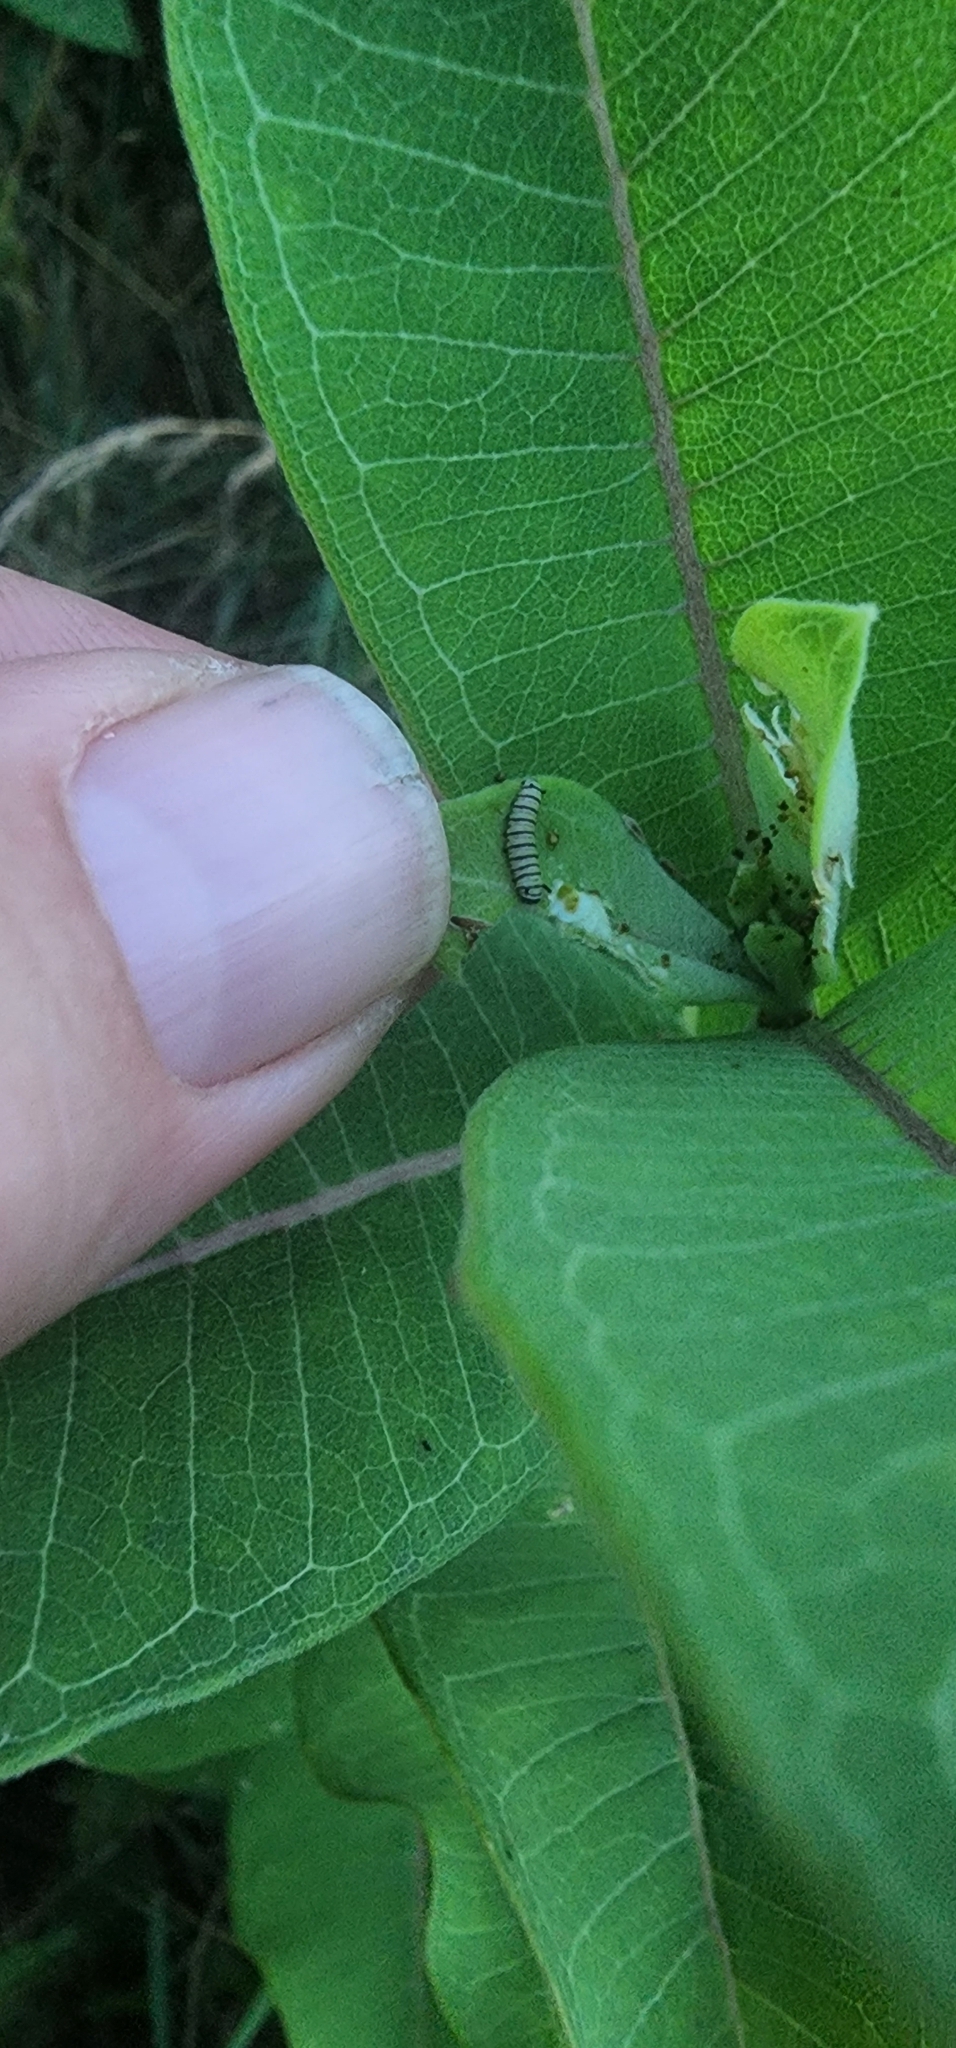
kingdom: Animalia
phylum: Arthropoda
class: Insecta
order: Lepidoptera
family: Nymphalidae
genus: Danaus
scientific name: Danaus plexippus
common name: Monarch
